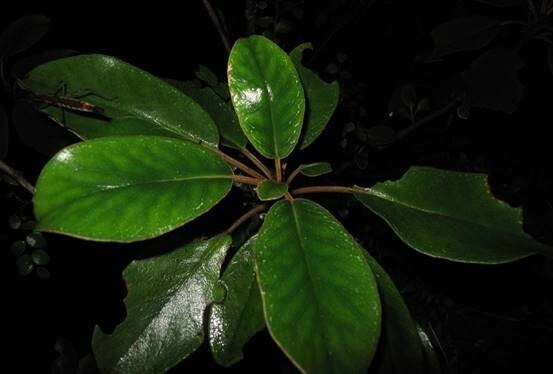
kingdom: Plantae
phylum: Tracheophyta
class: Magnoliopsida
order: Asterales
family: Asteraceae
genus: Brachyglottis
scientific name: Brachyglottis elaeagnifolia
